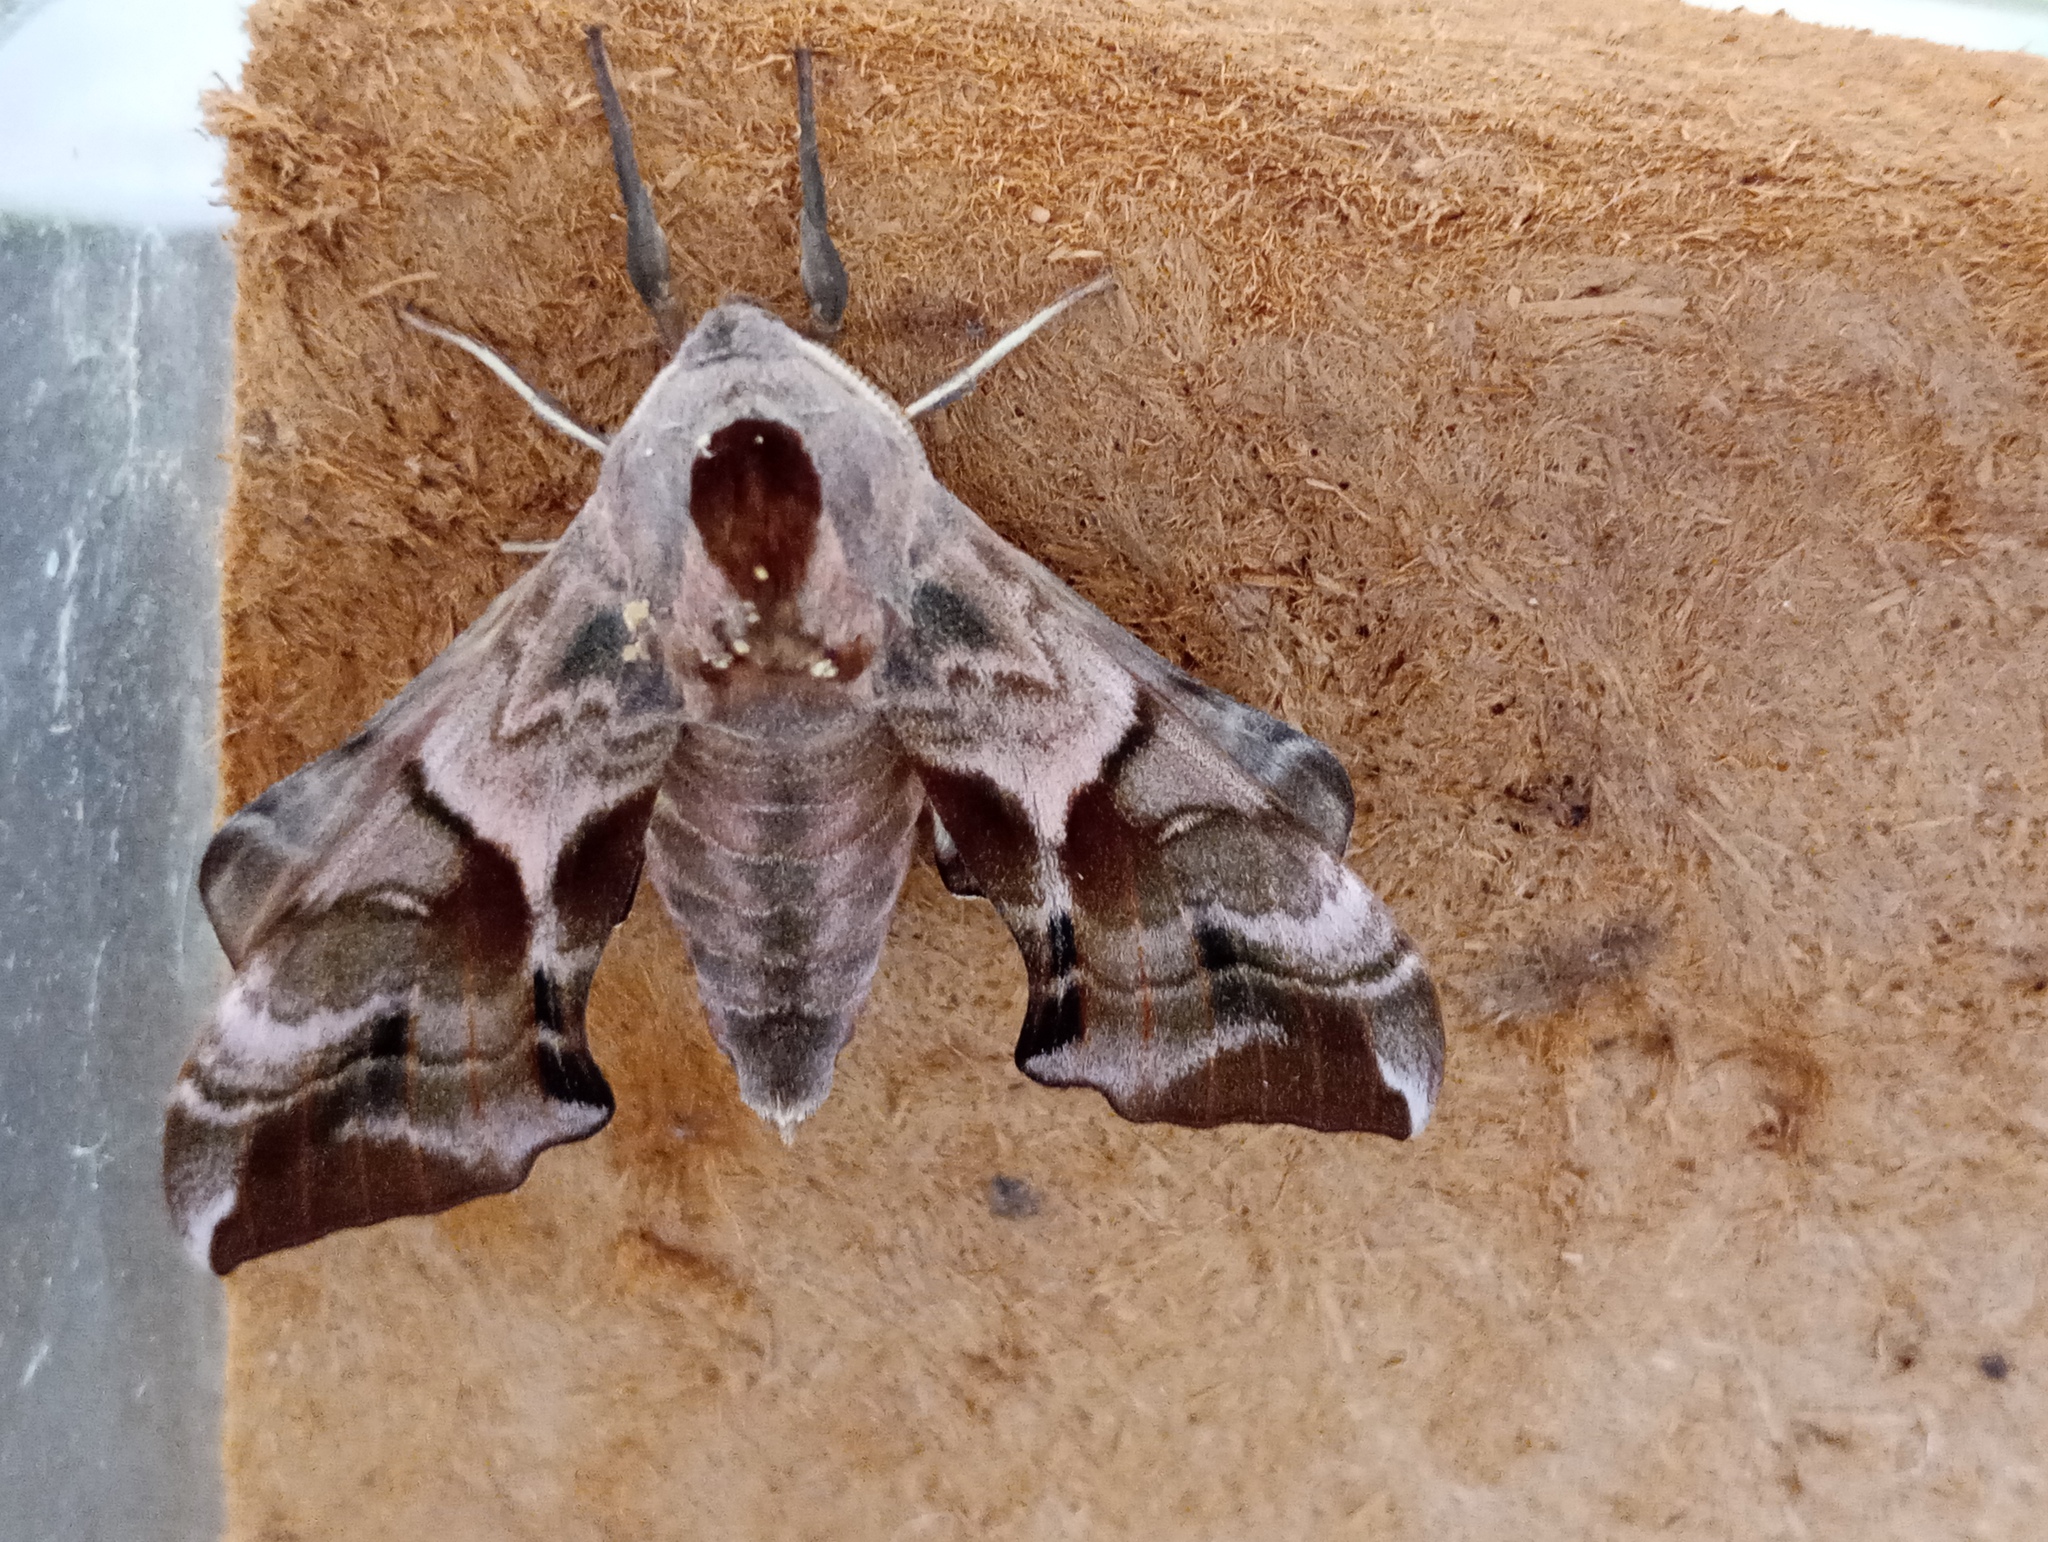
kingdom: Animalia
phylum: Arthropoda
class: Insecta
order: Lepidoptera
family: Sphingidae
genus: Smerinthus
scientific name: Smerinthus ocellata
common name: Eyed hawk-moth
